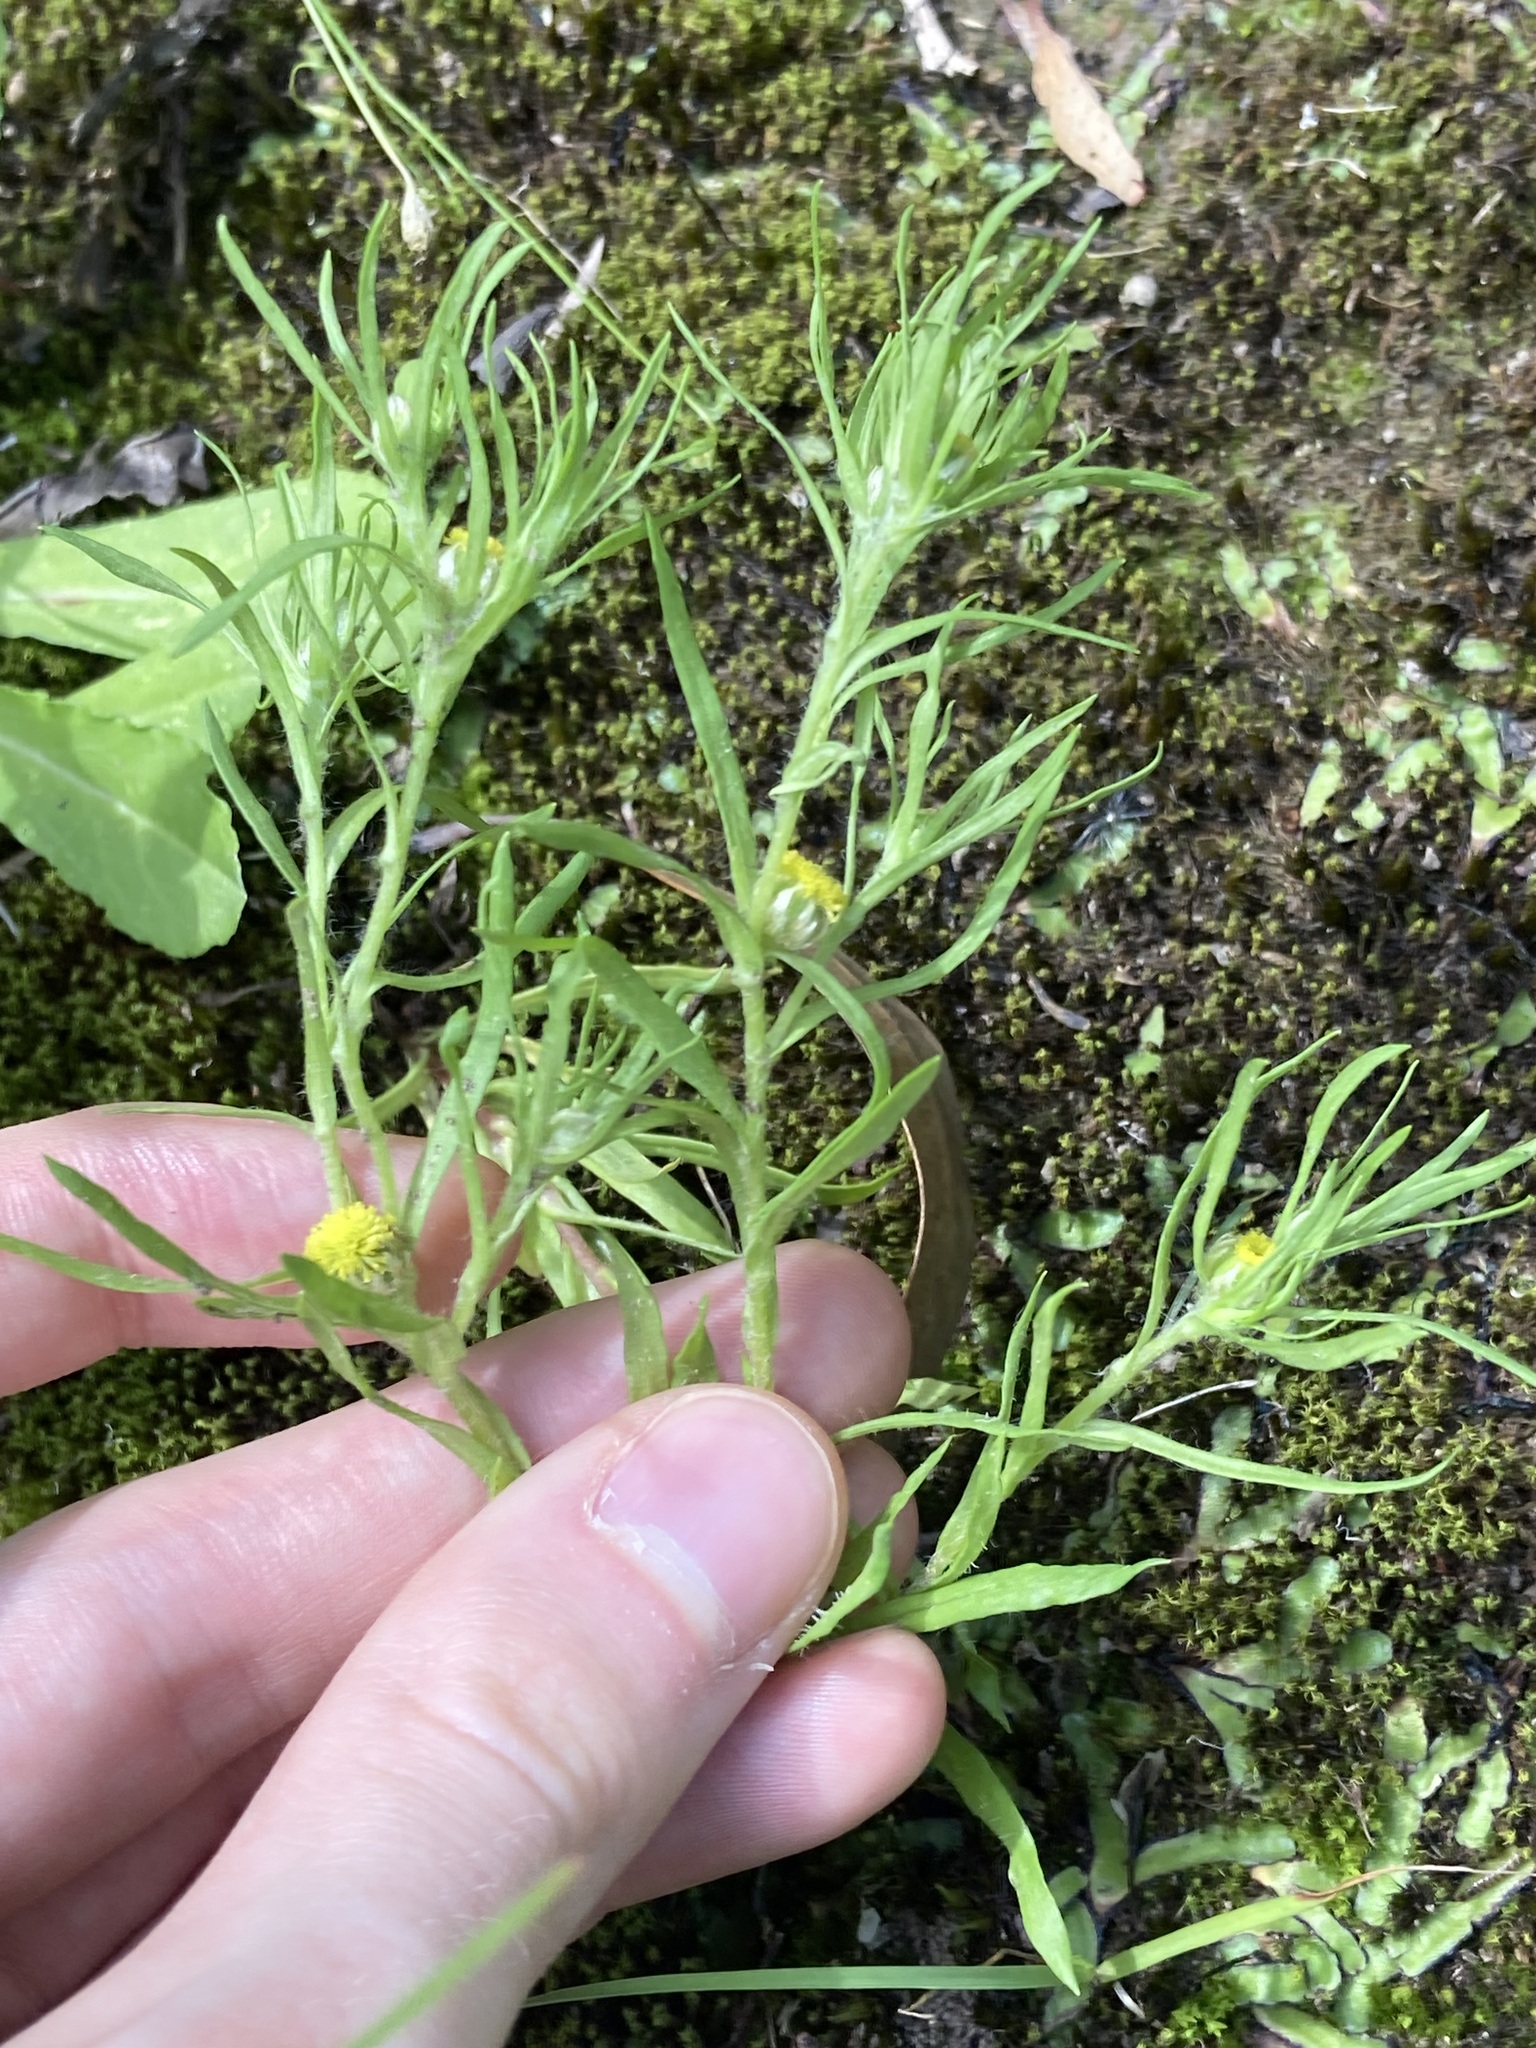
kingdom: Plantae
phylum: Tracheophyta
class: Magnoliopsida
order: Asterales
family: Asteraceae
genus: Triptilodiscus
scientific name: Triptilodiscus pygmaeus
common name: Common sunray
